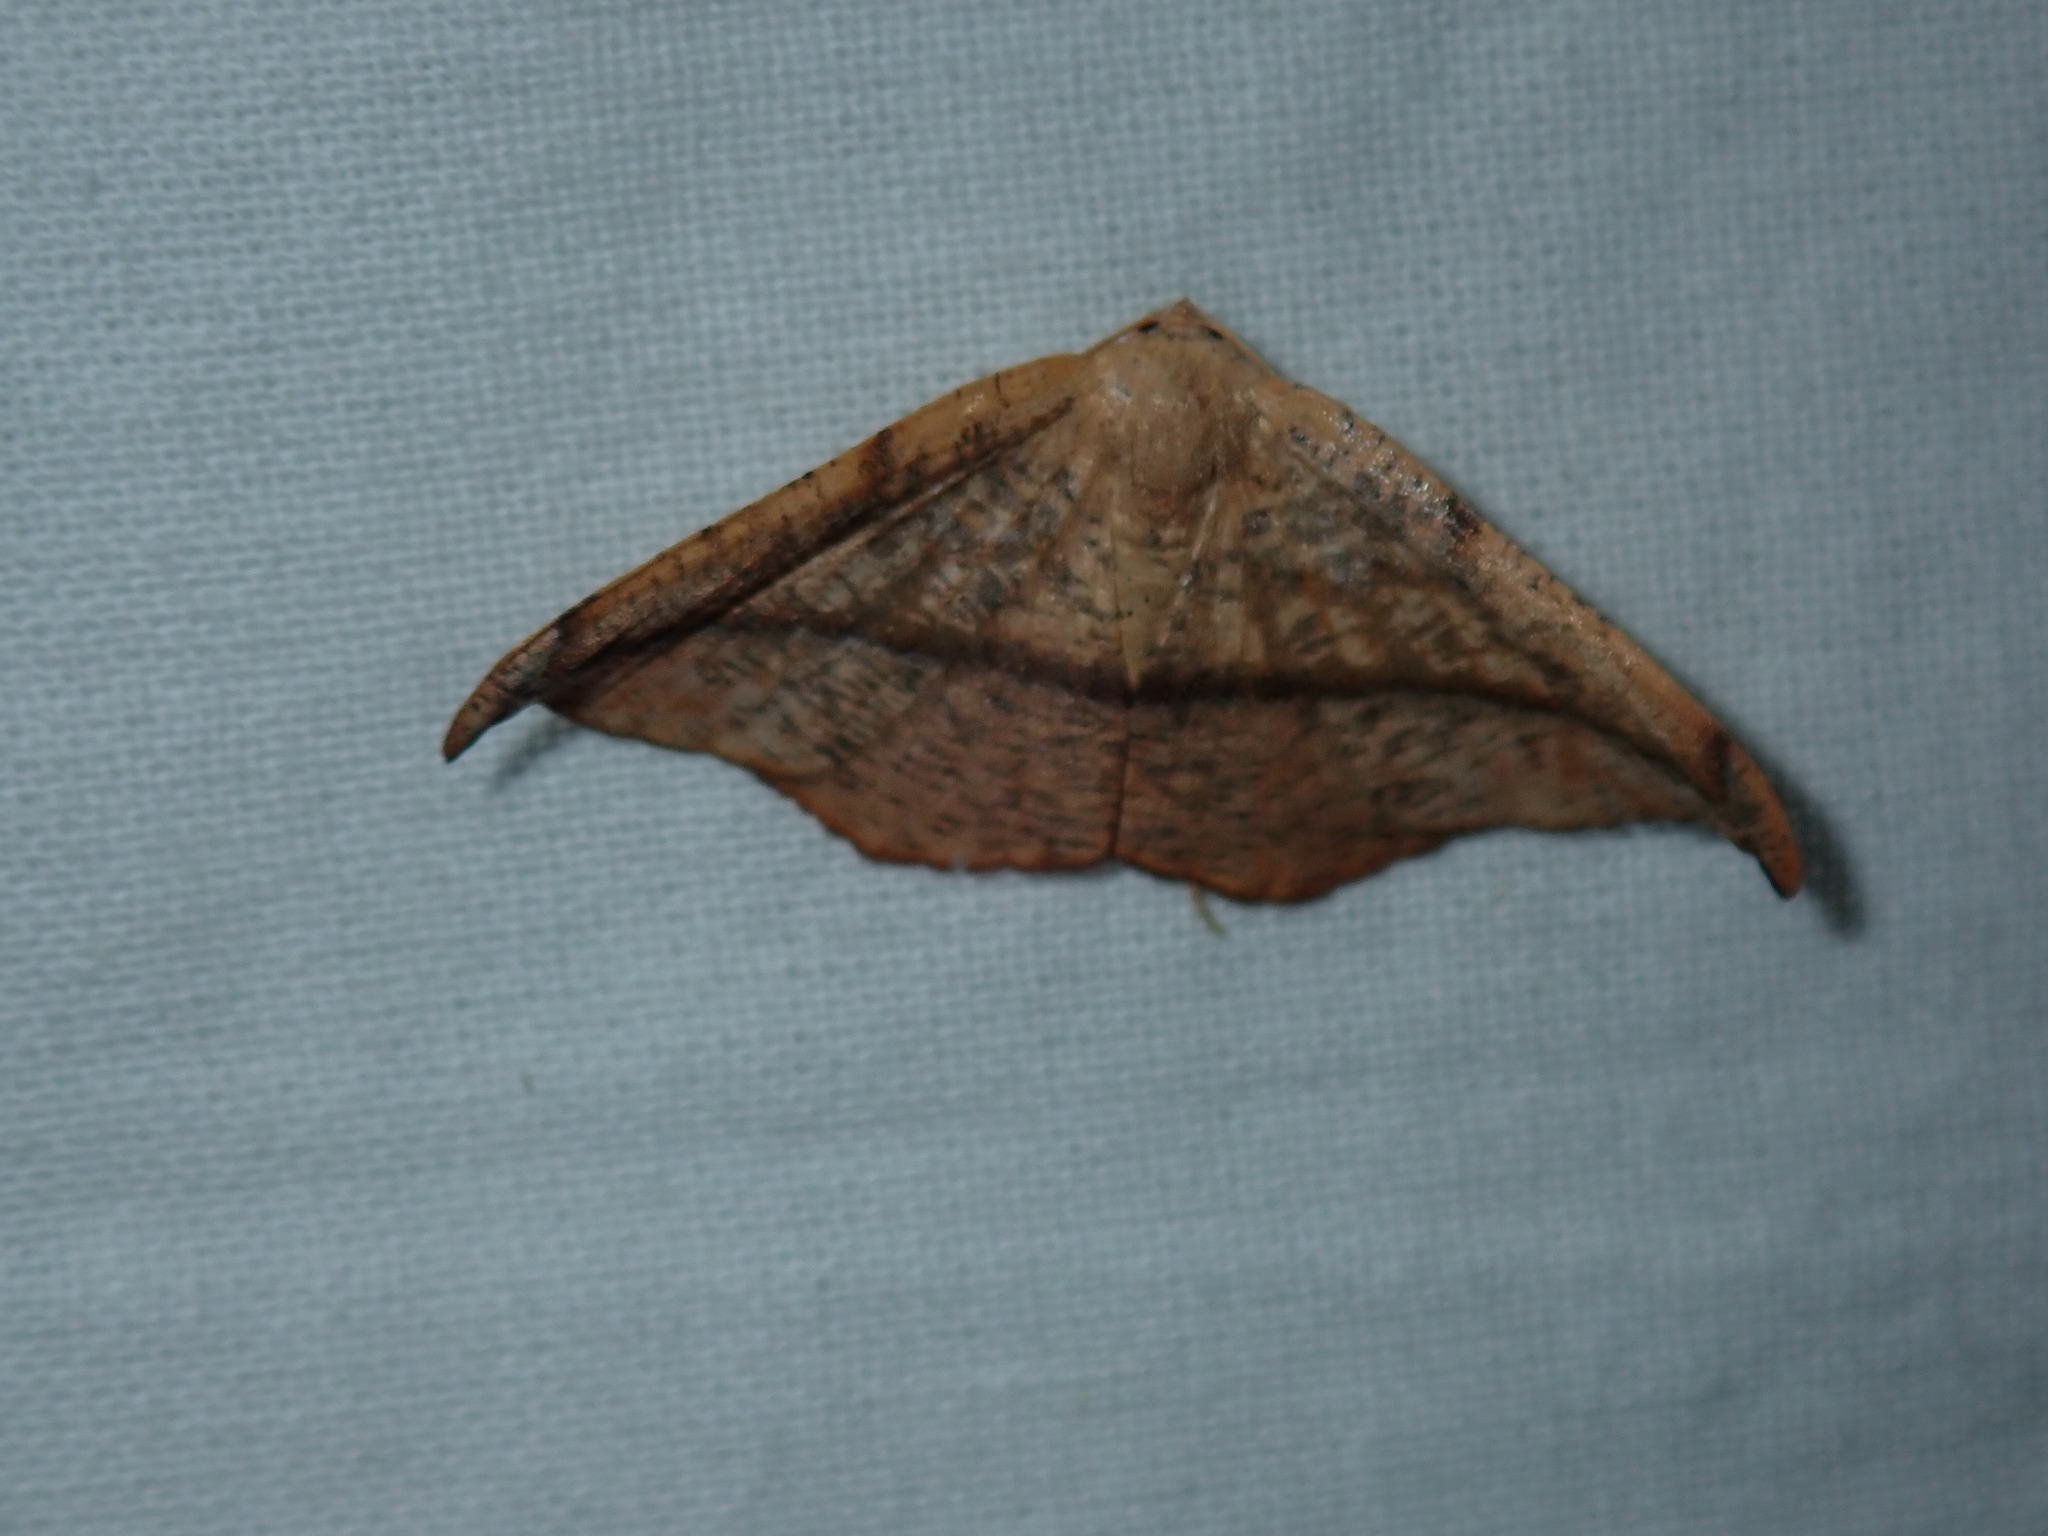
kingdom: Animalia
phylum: Arthropoda
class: Insecta
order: Lepidoptera
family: Geometridae
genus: Patalene
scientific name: Patalene olyzonaria
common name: Juniper geometer moth
